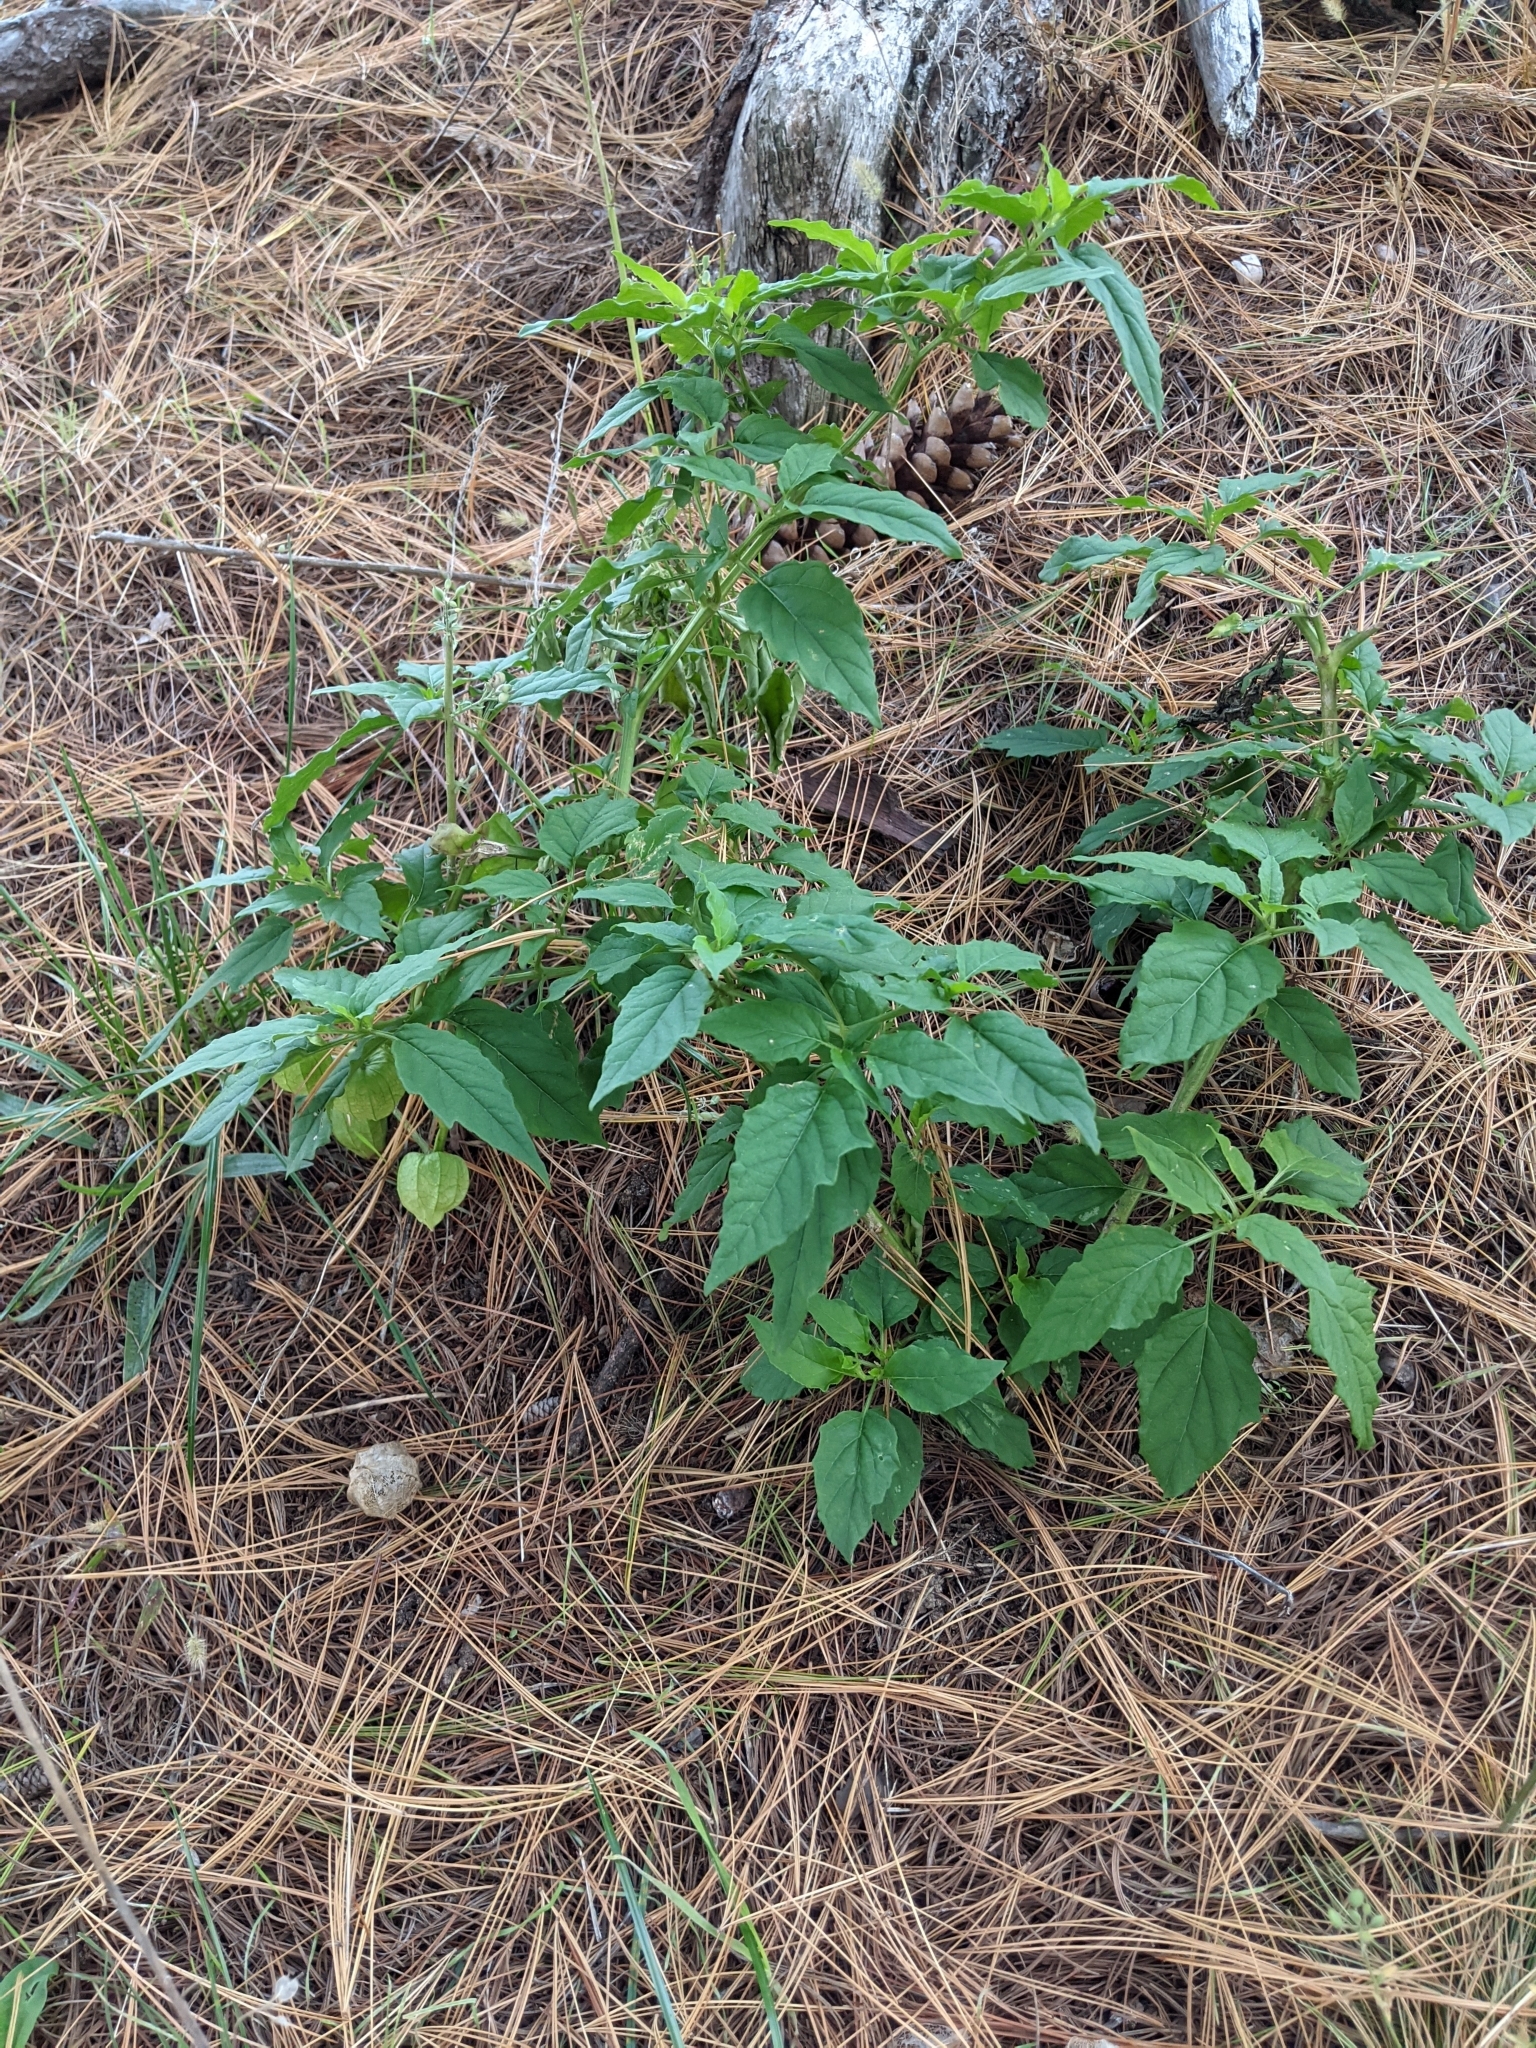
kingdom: Plantae
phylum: Tracheophyta
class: Magnoliopsida
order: Solanales
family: Solanaceae
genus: Physalis
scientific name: Physalis longifolia
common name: Common ground-cherry
